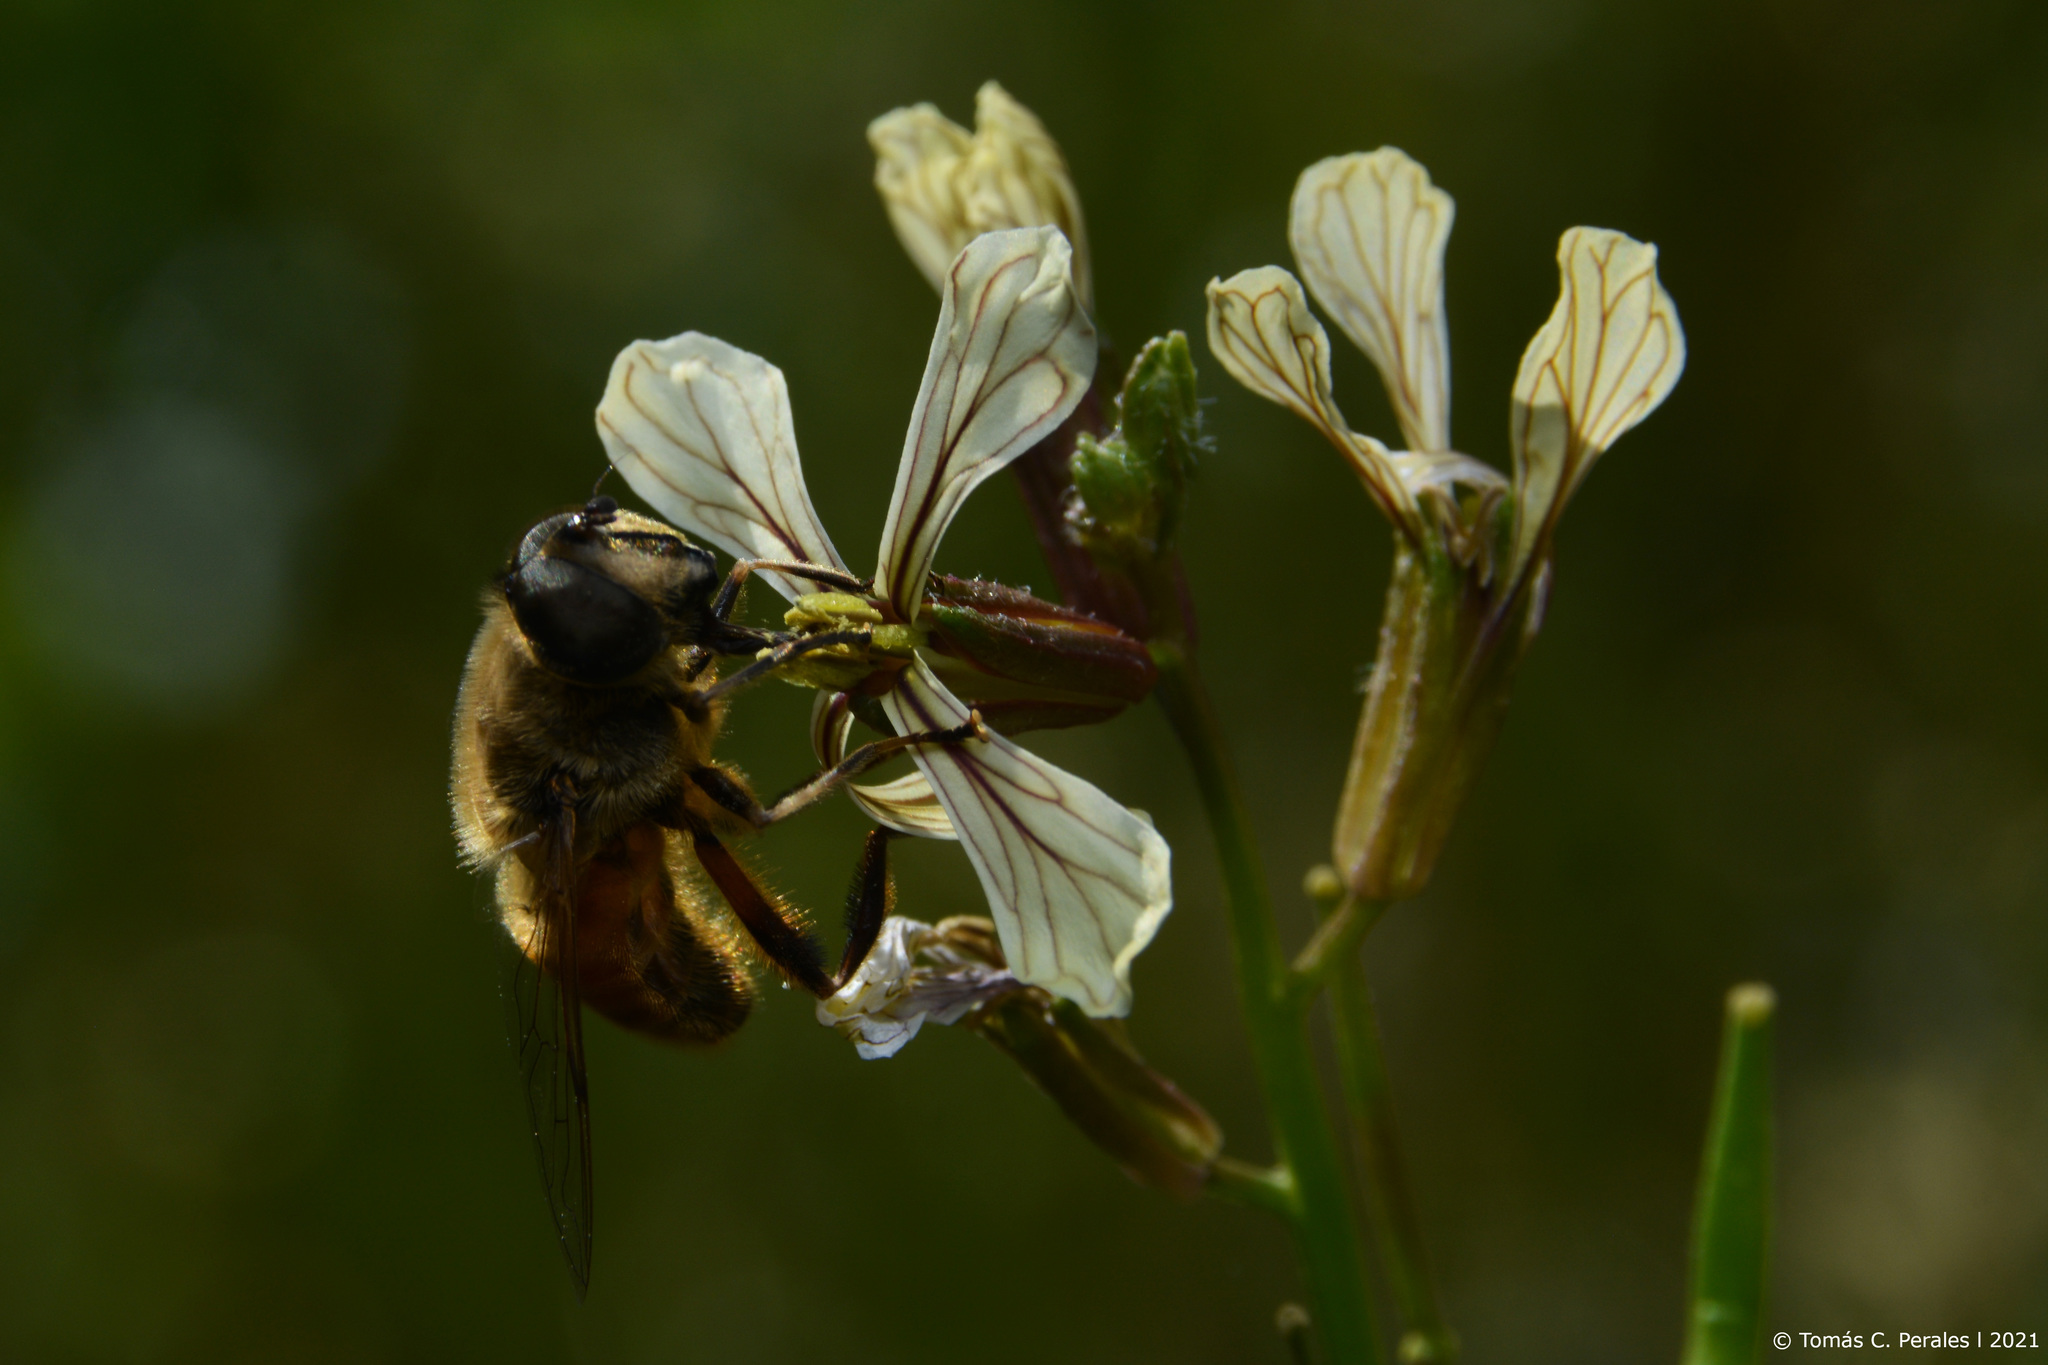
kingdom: Plantae
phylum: Tracheophyta
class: Magnoliopsida
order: Brassicales
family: Brassicaceae
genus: Eruca
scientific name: Eruca vesicaria
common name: Garden rocket
